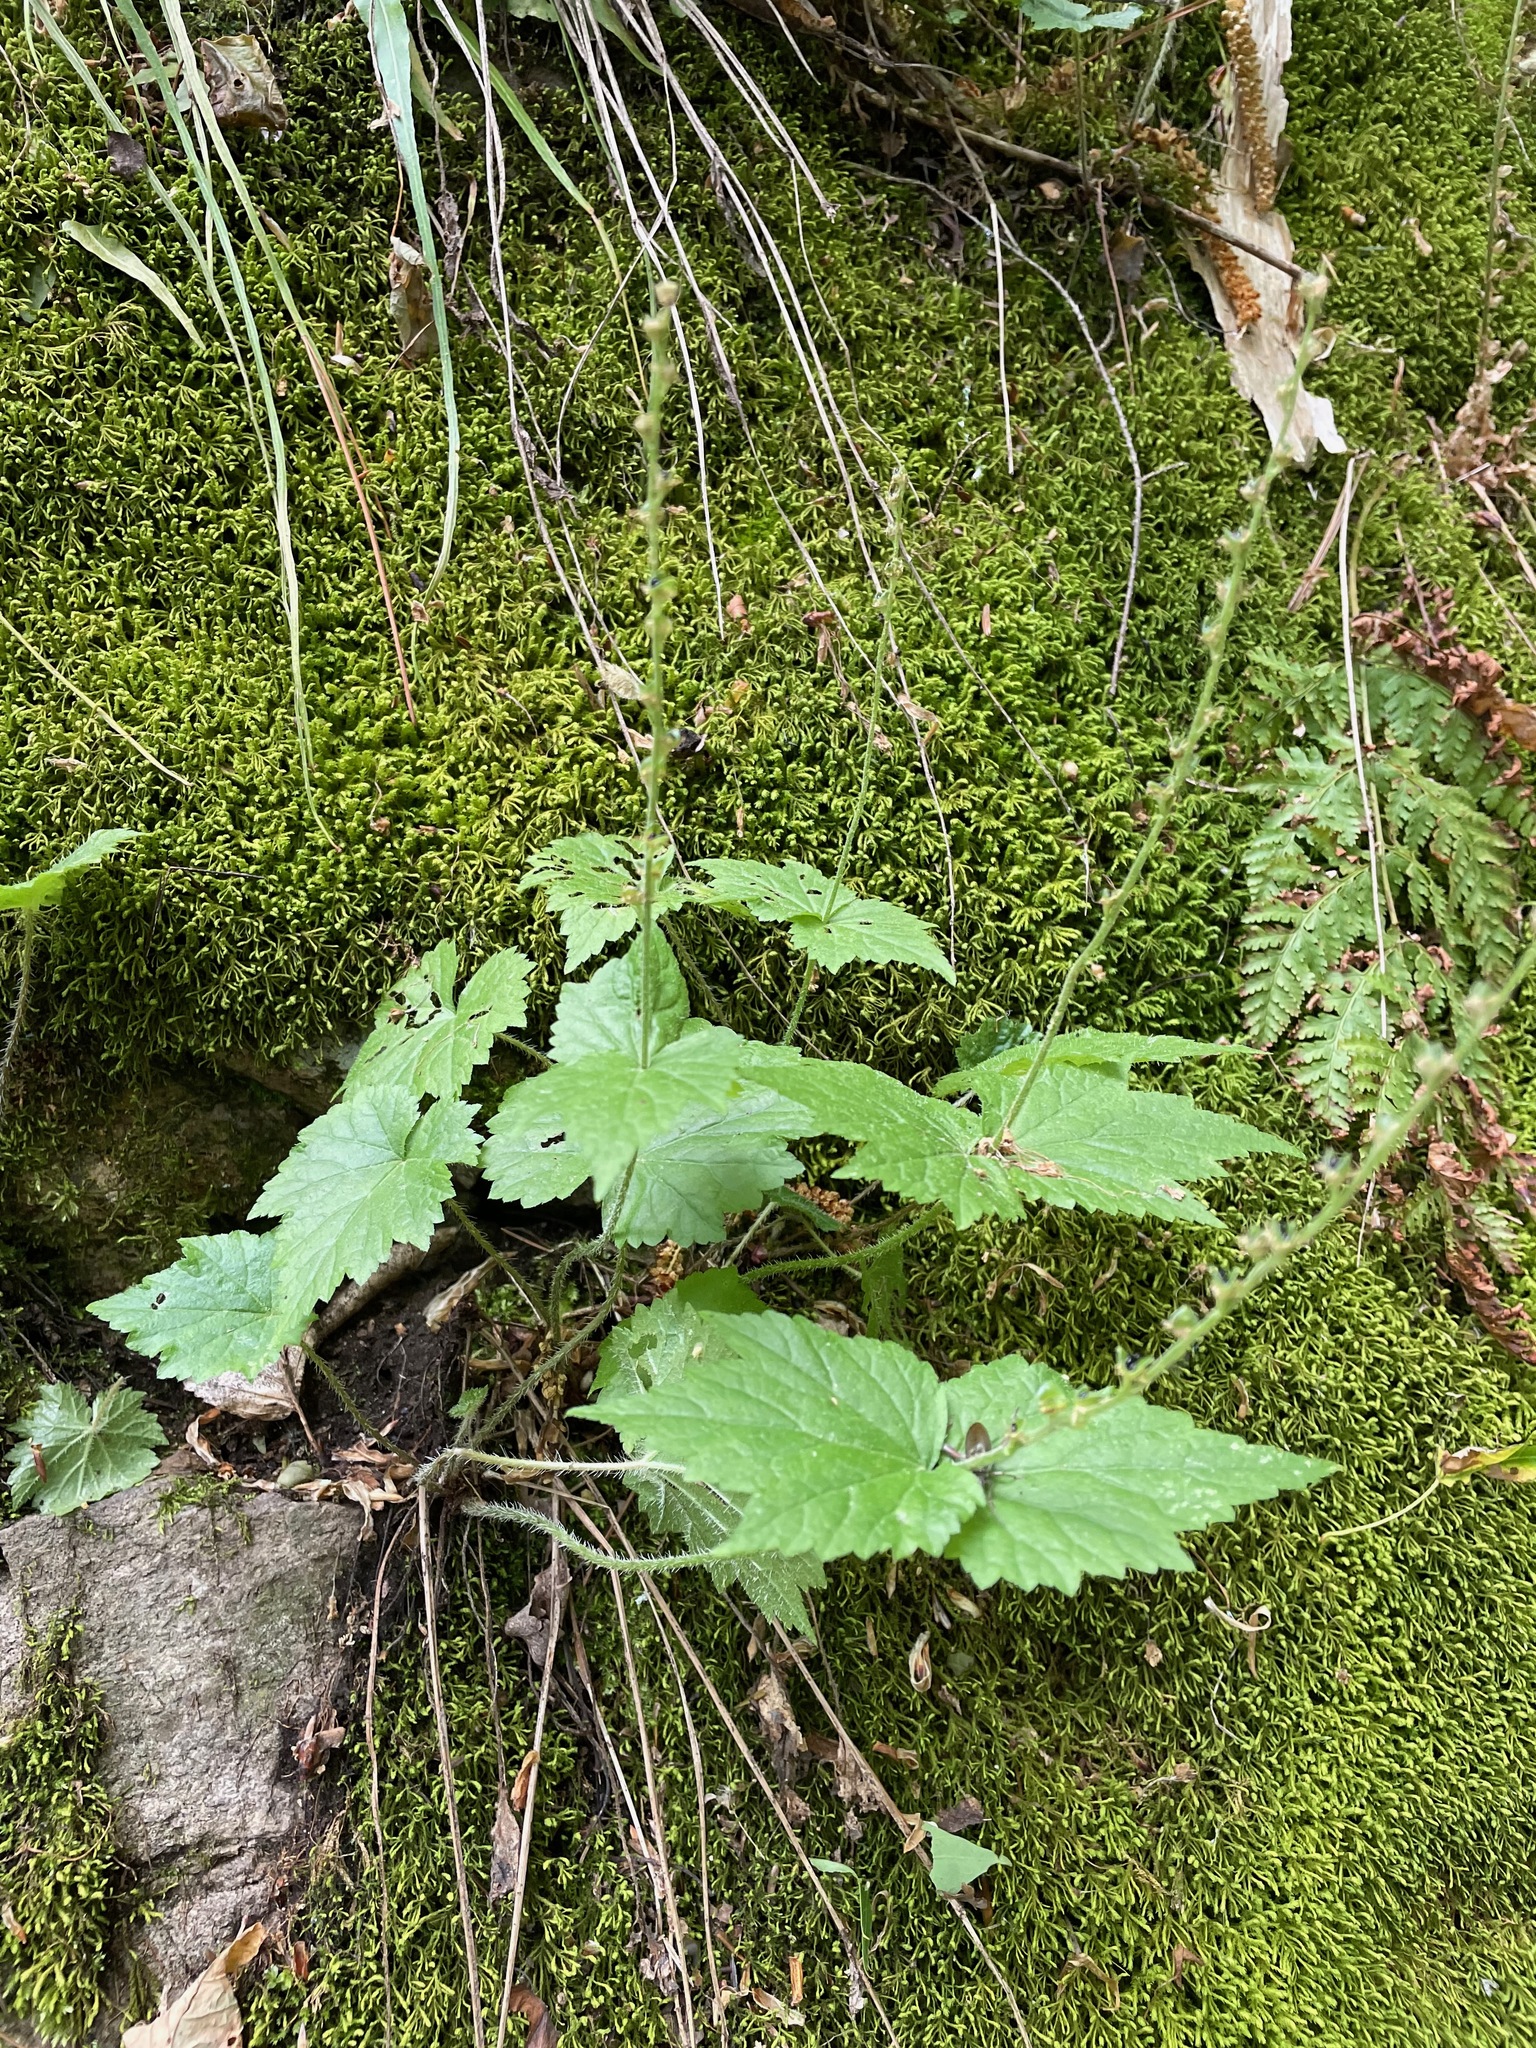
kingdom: Plantae
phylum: Tracheophyta
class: Magnoliopsida
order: Saxifragales
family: Saxifragaceae
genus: Mitella
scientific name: Mitella diphylla
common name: Coolwort
